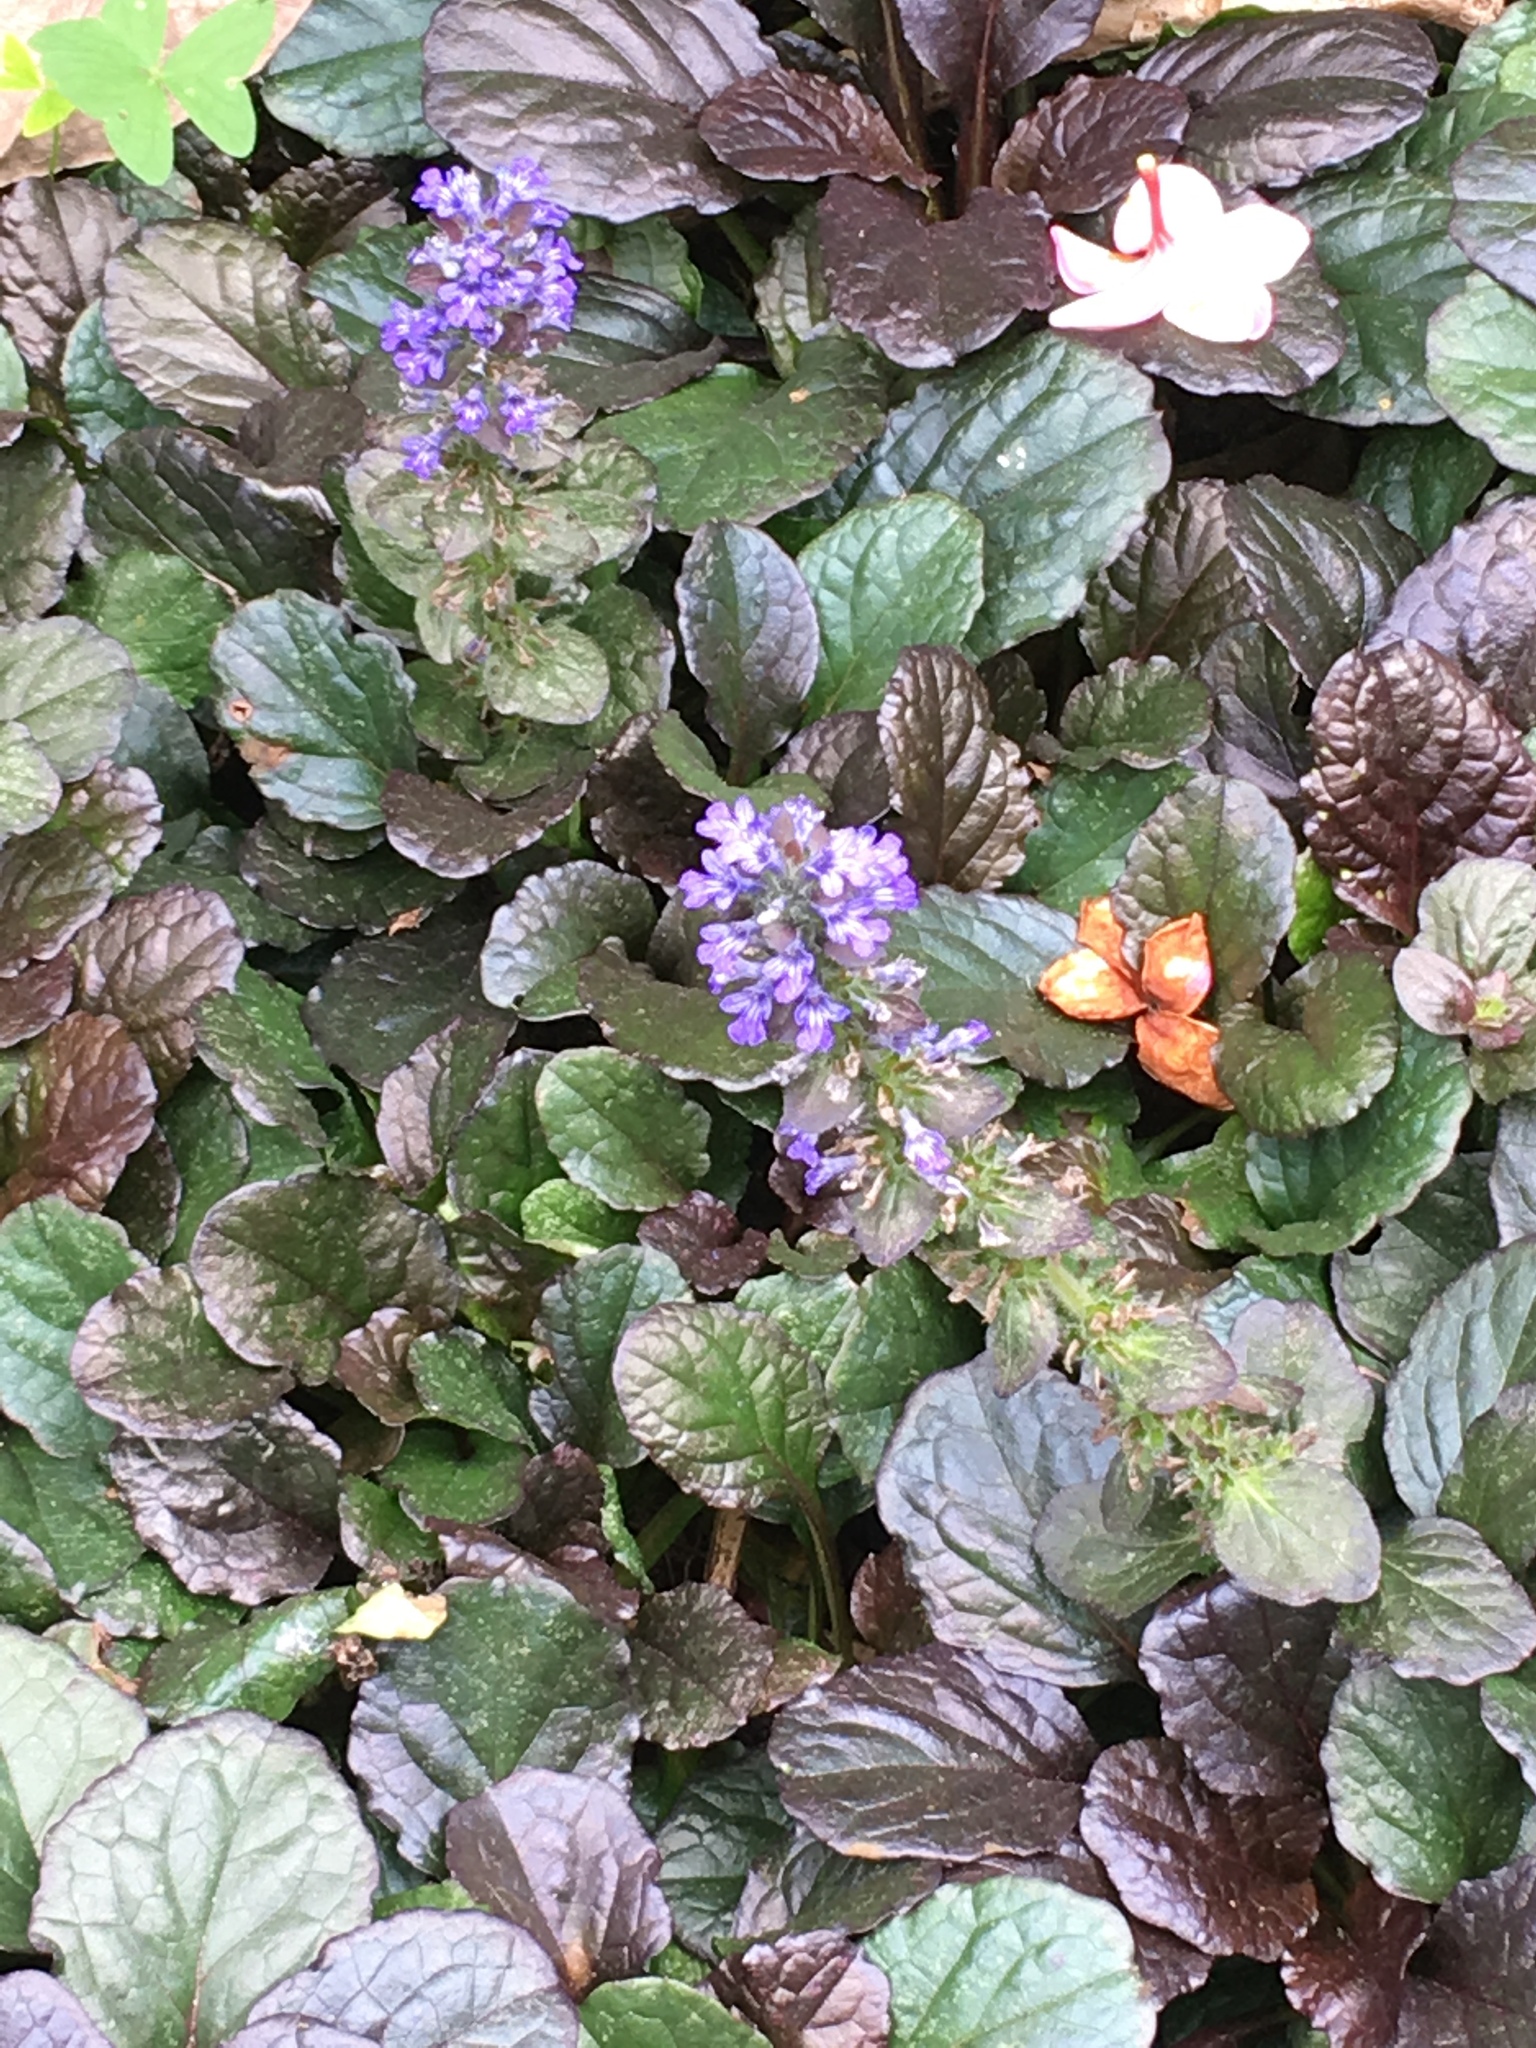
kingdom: Plantae
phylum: Tracheophyta
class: Magnoliopsida
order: Lamiales
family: Lamiaceae
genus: Ajuga
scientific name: Ajuga reptans
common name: Bugle
